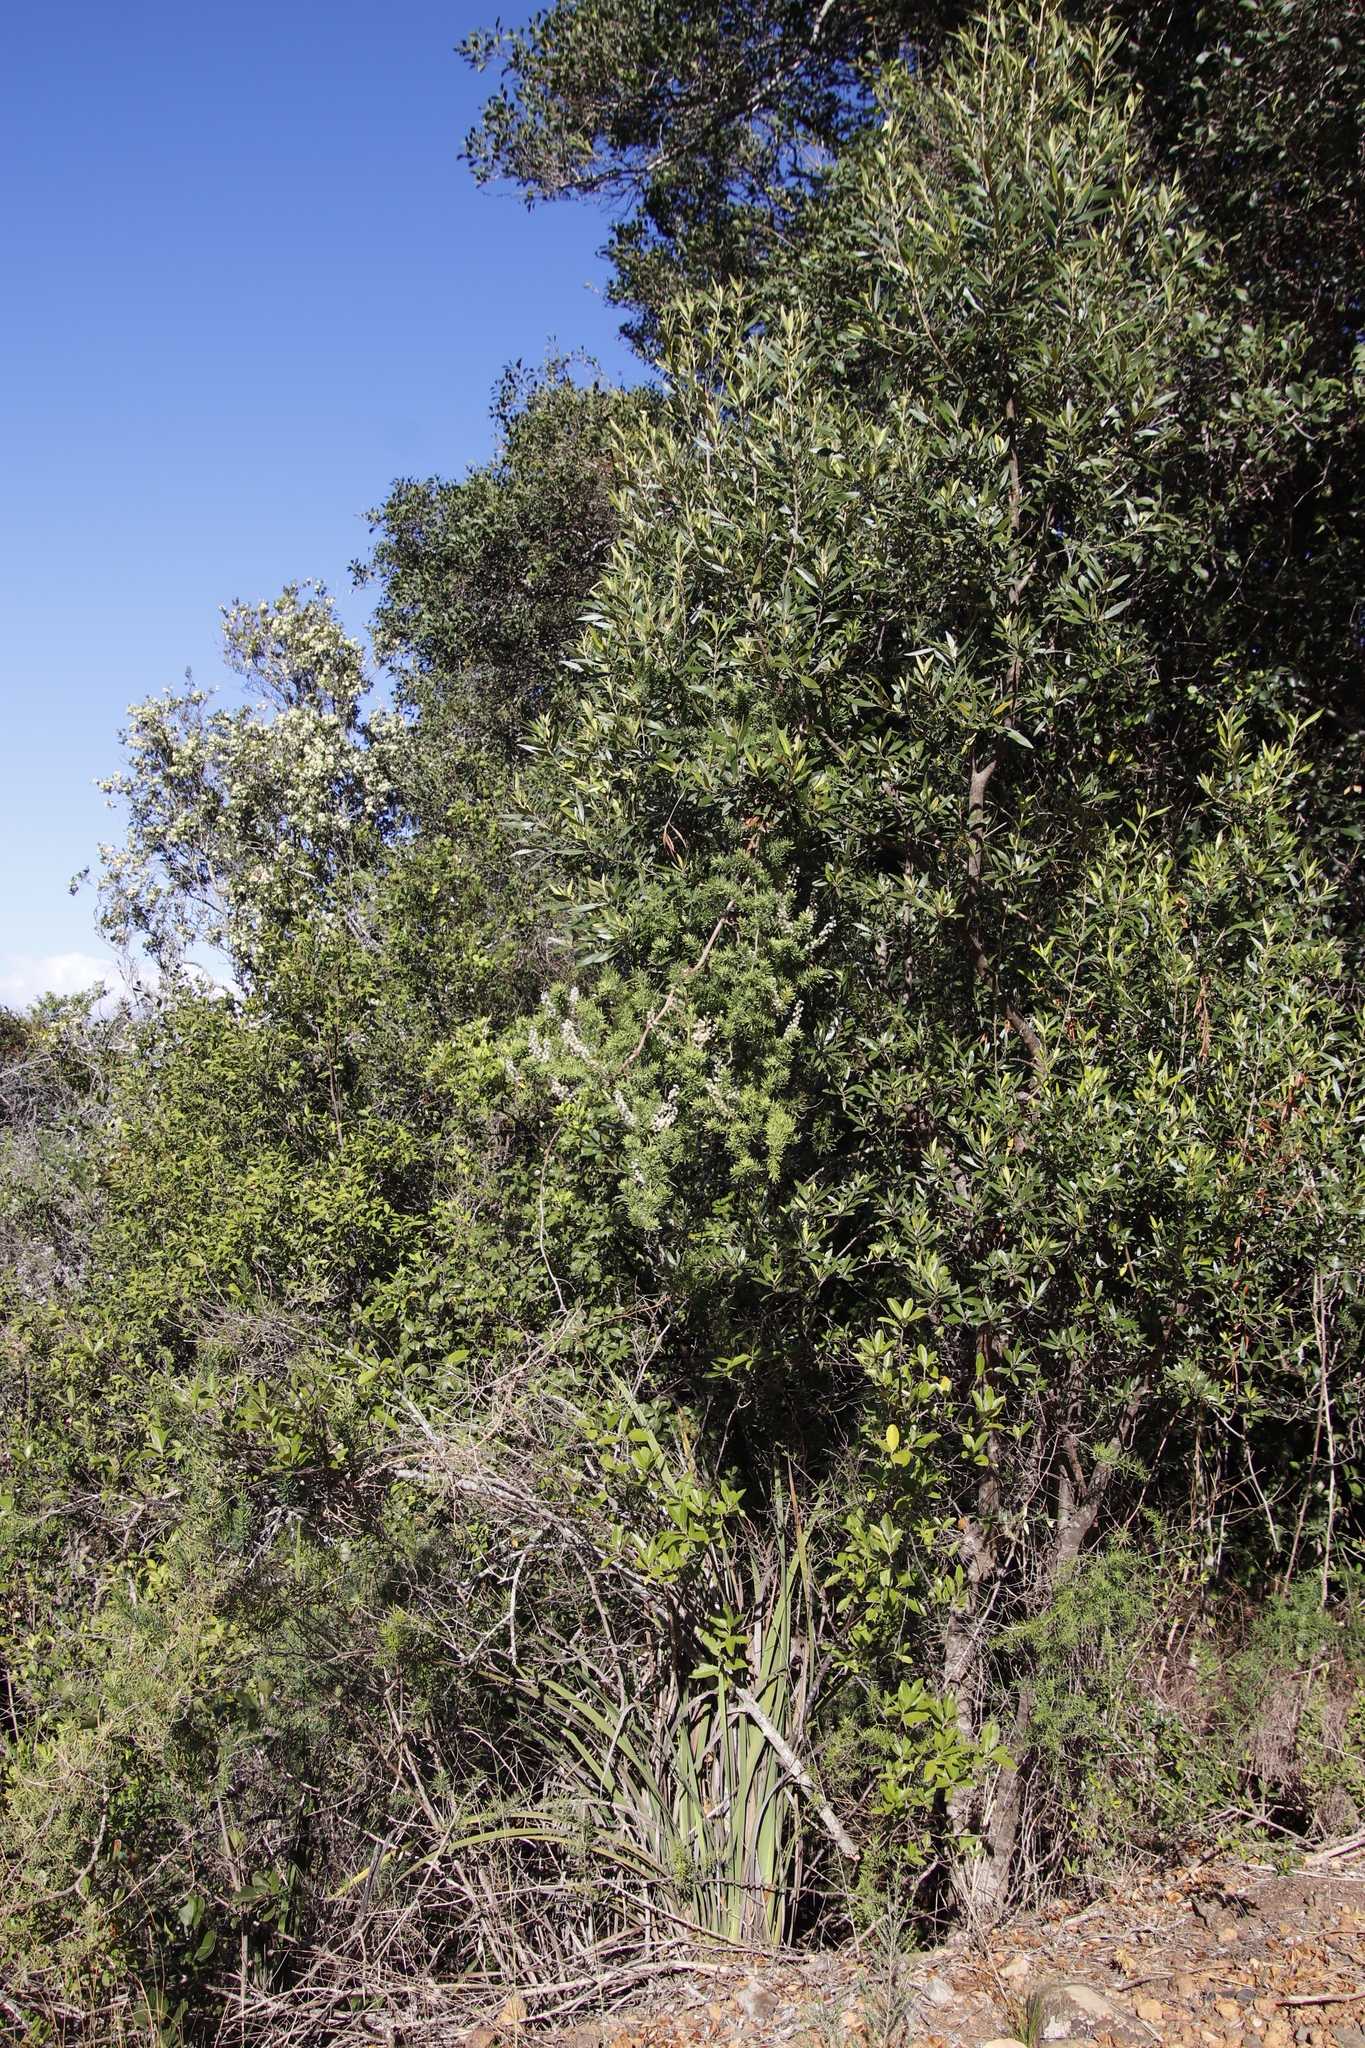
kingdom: Plantae
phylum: Tracheophyta
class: Liliopsida
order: Asparagales
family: Asparagaceae
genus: Asparagus
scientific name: Asparagus aethiopicus
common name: Sprenger's asparagus fern
